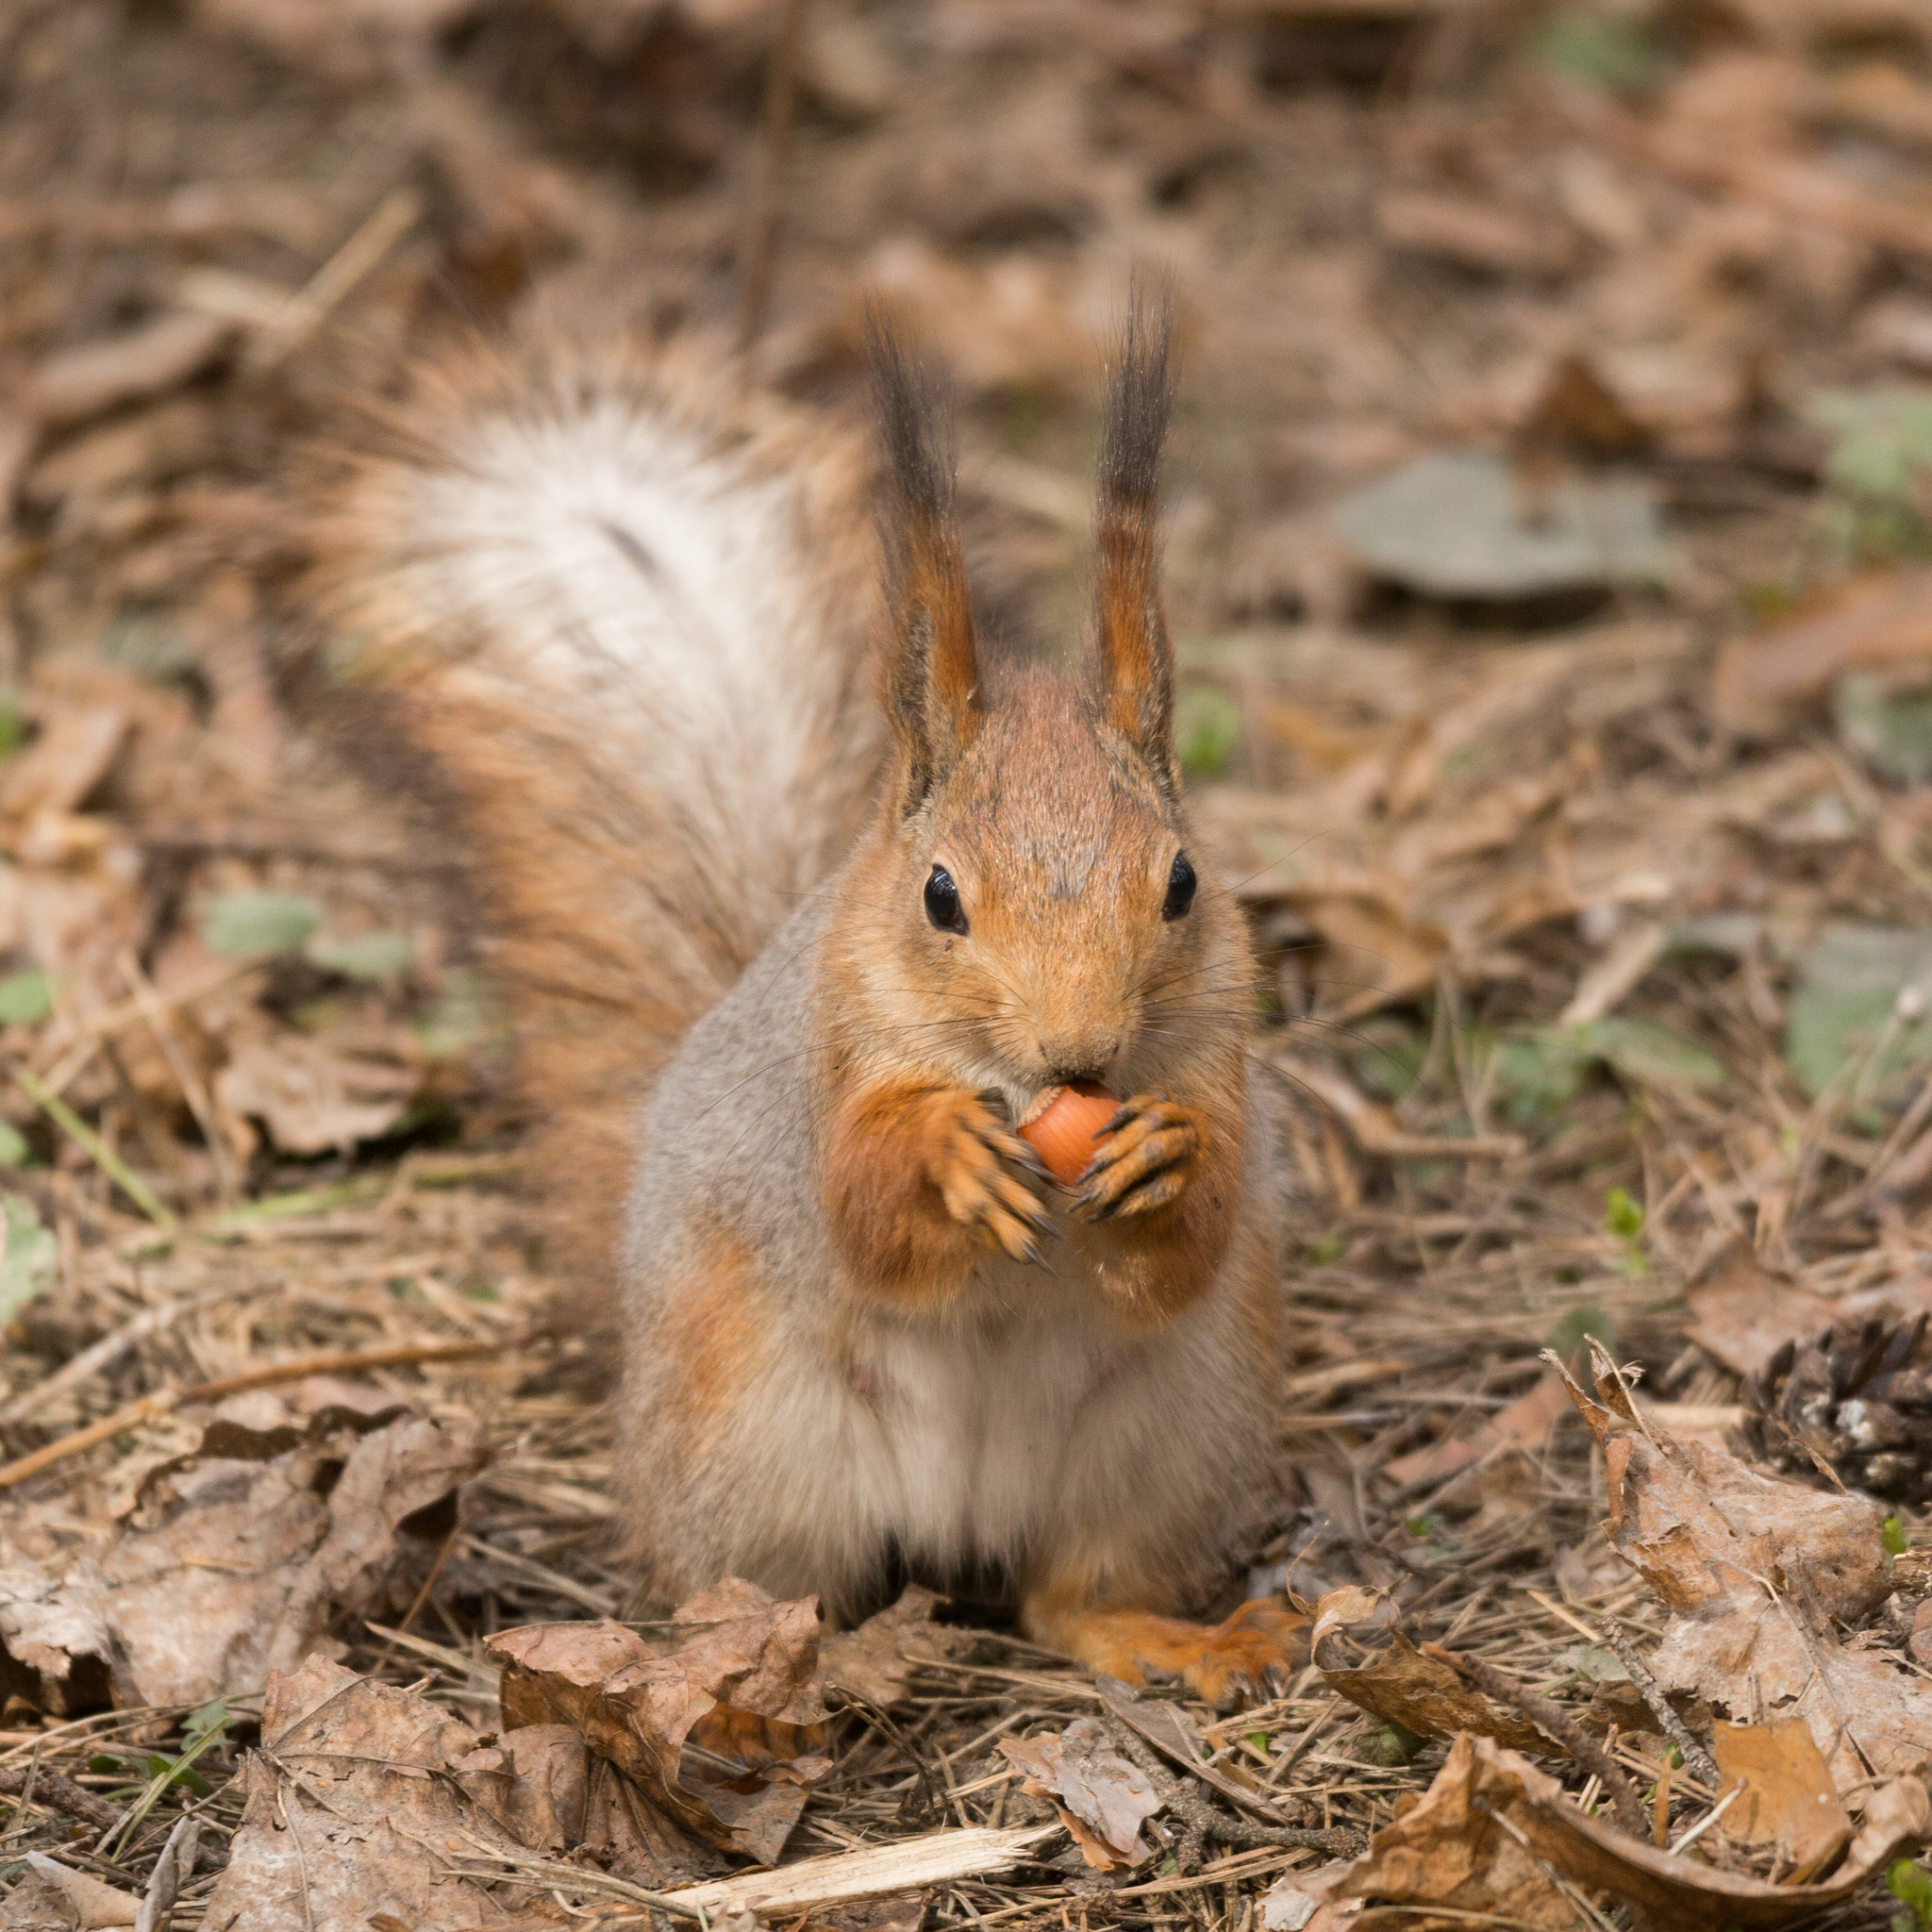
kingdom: Animalia
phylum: Chordata
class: Mammalia
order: Rodentia
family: Sciuridae
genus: Sciurus
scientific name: Sciurus vulgaris
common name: Eurasian red squirrel
